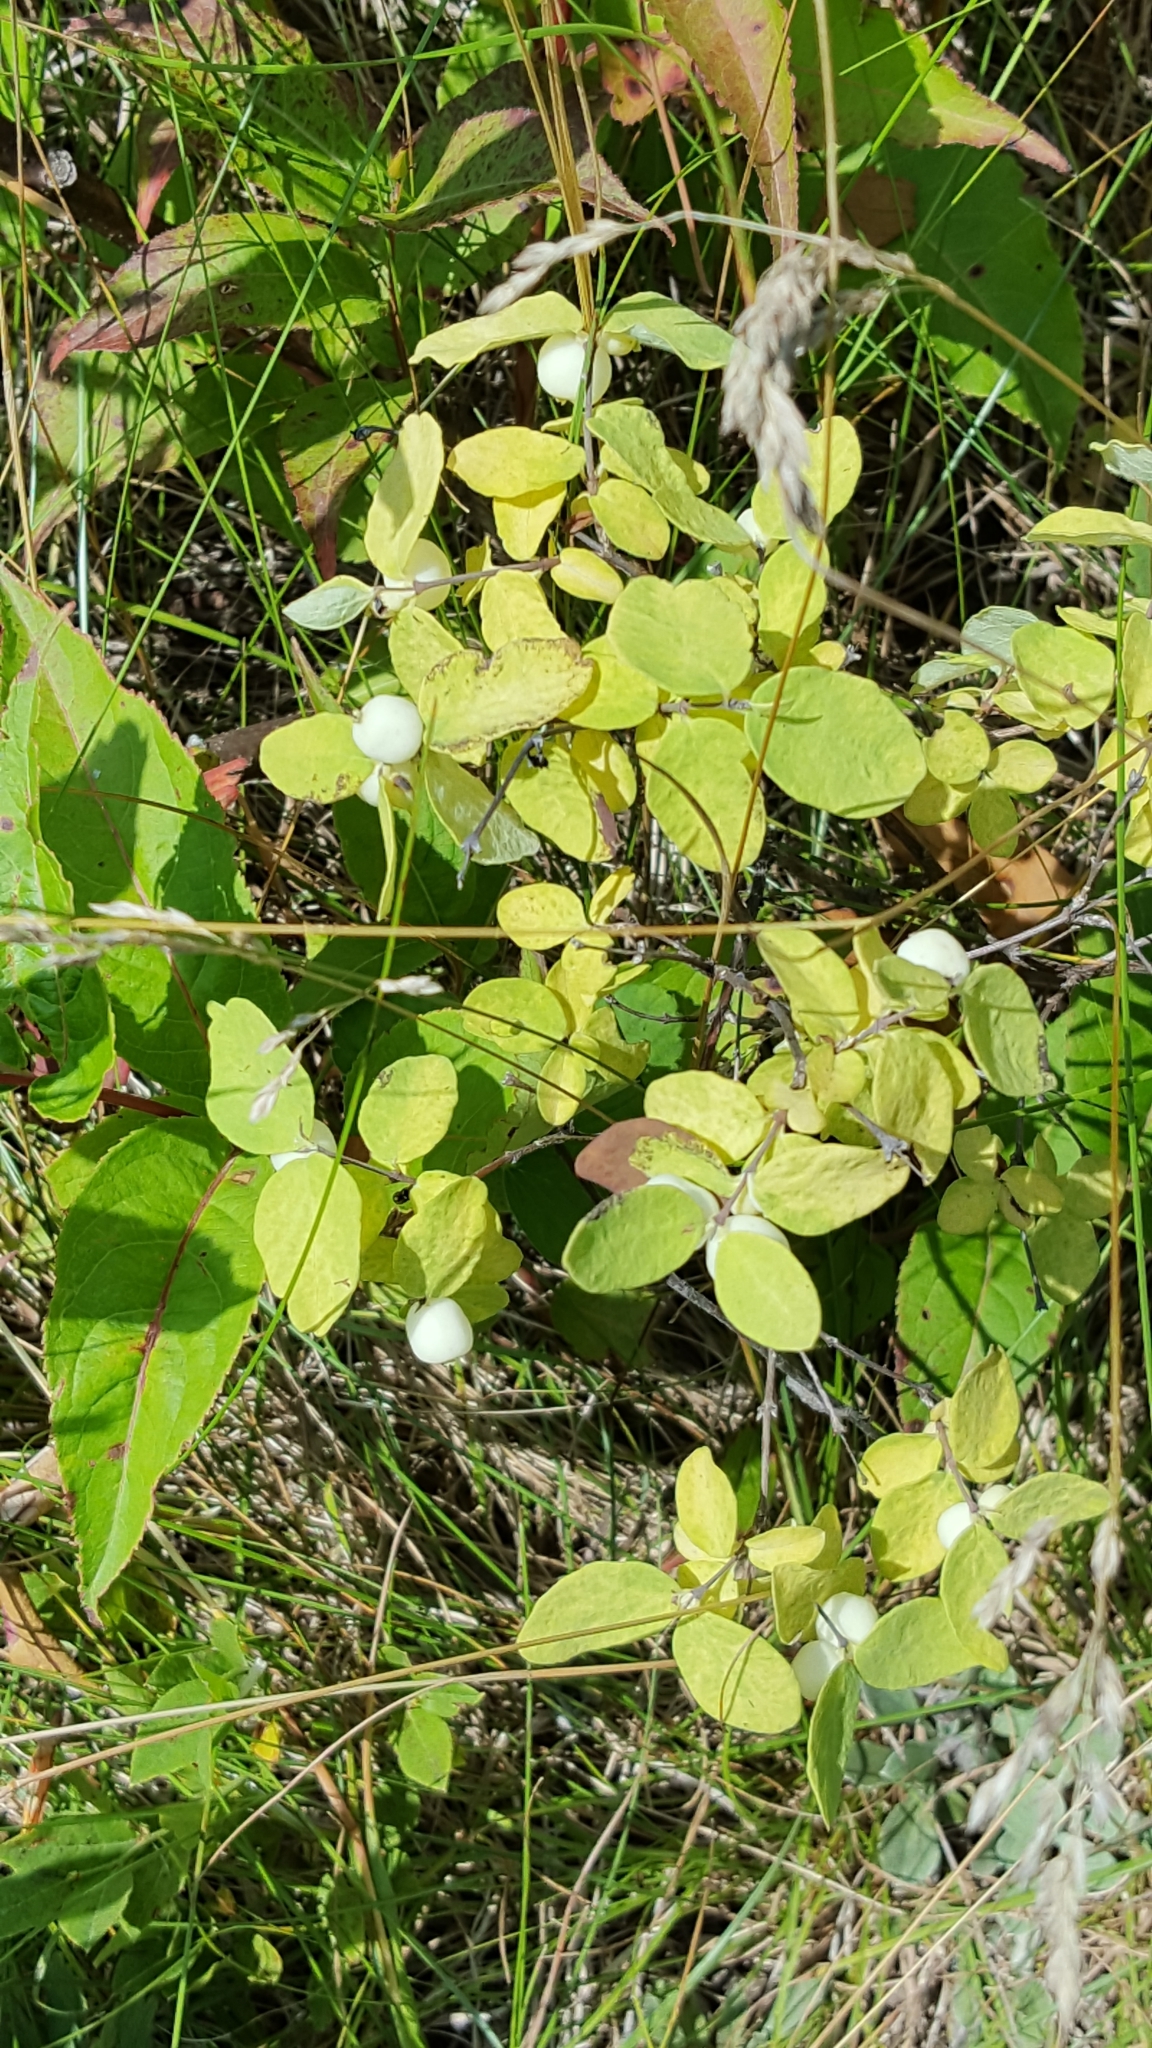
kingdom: Plantae
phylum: Tracheophyta
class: Magnoliopsida
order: Dipsacales
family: Caprifoliaceae
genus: Symphoricarpos
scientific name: Symphoricarpos albus
